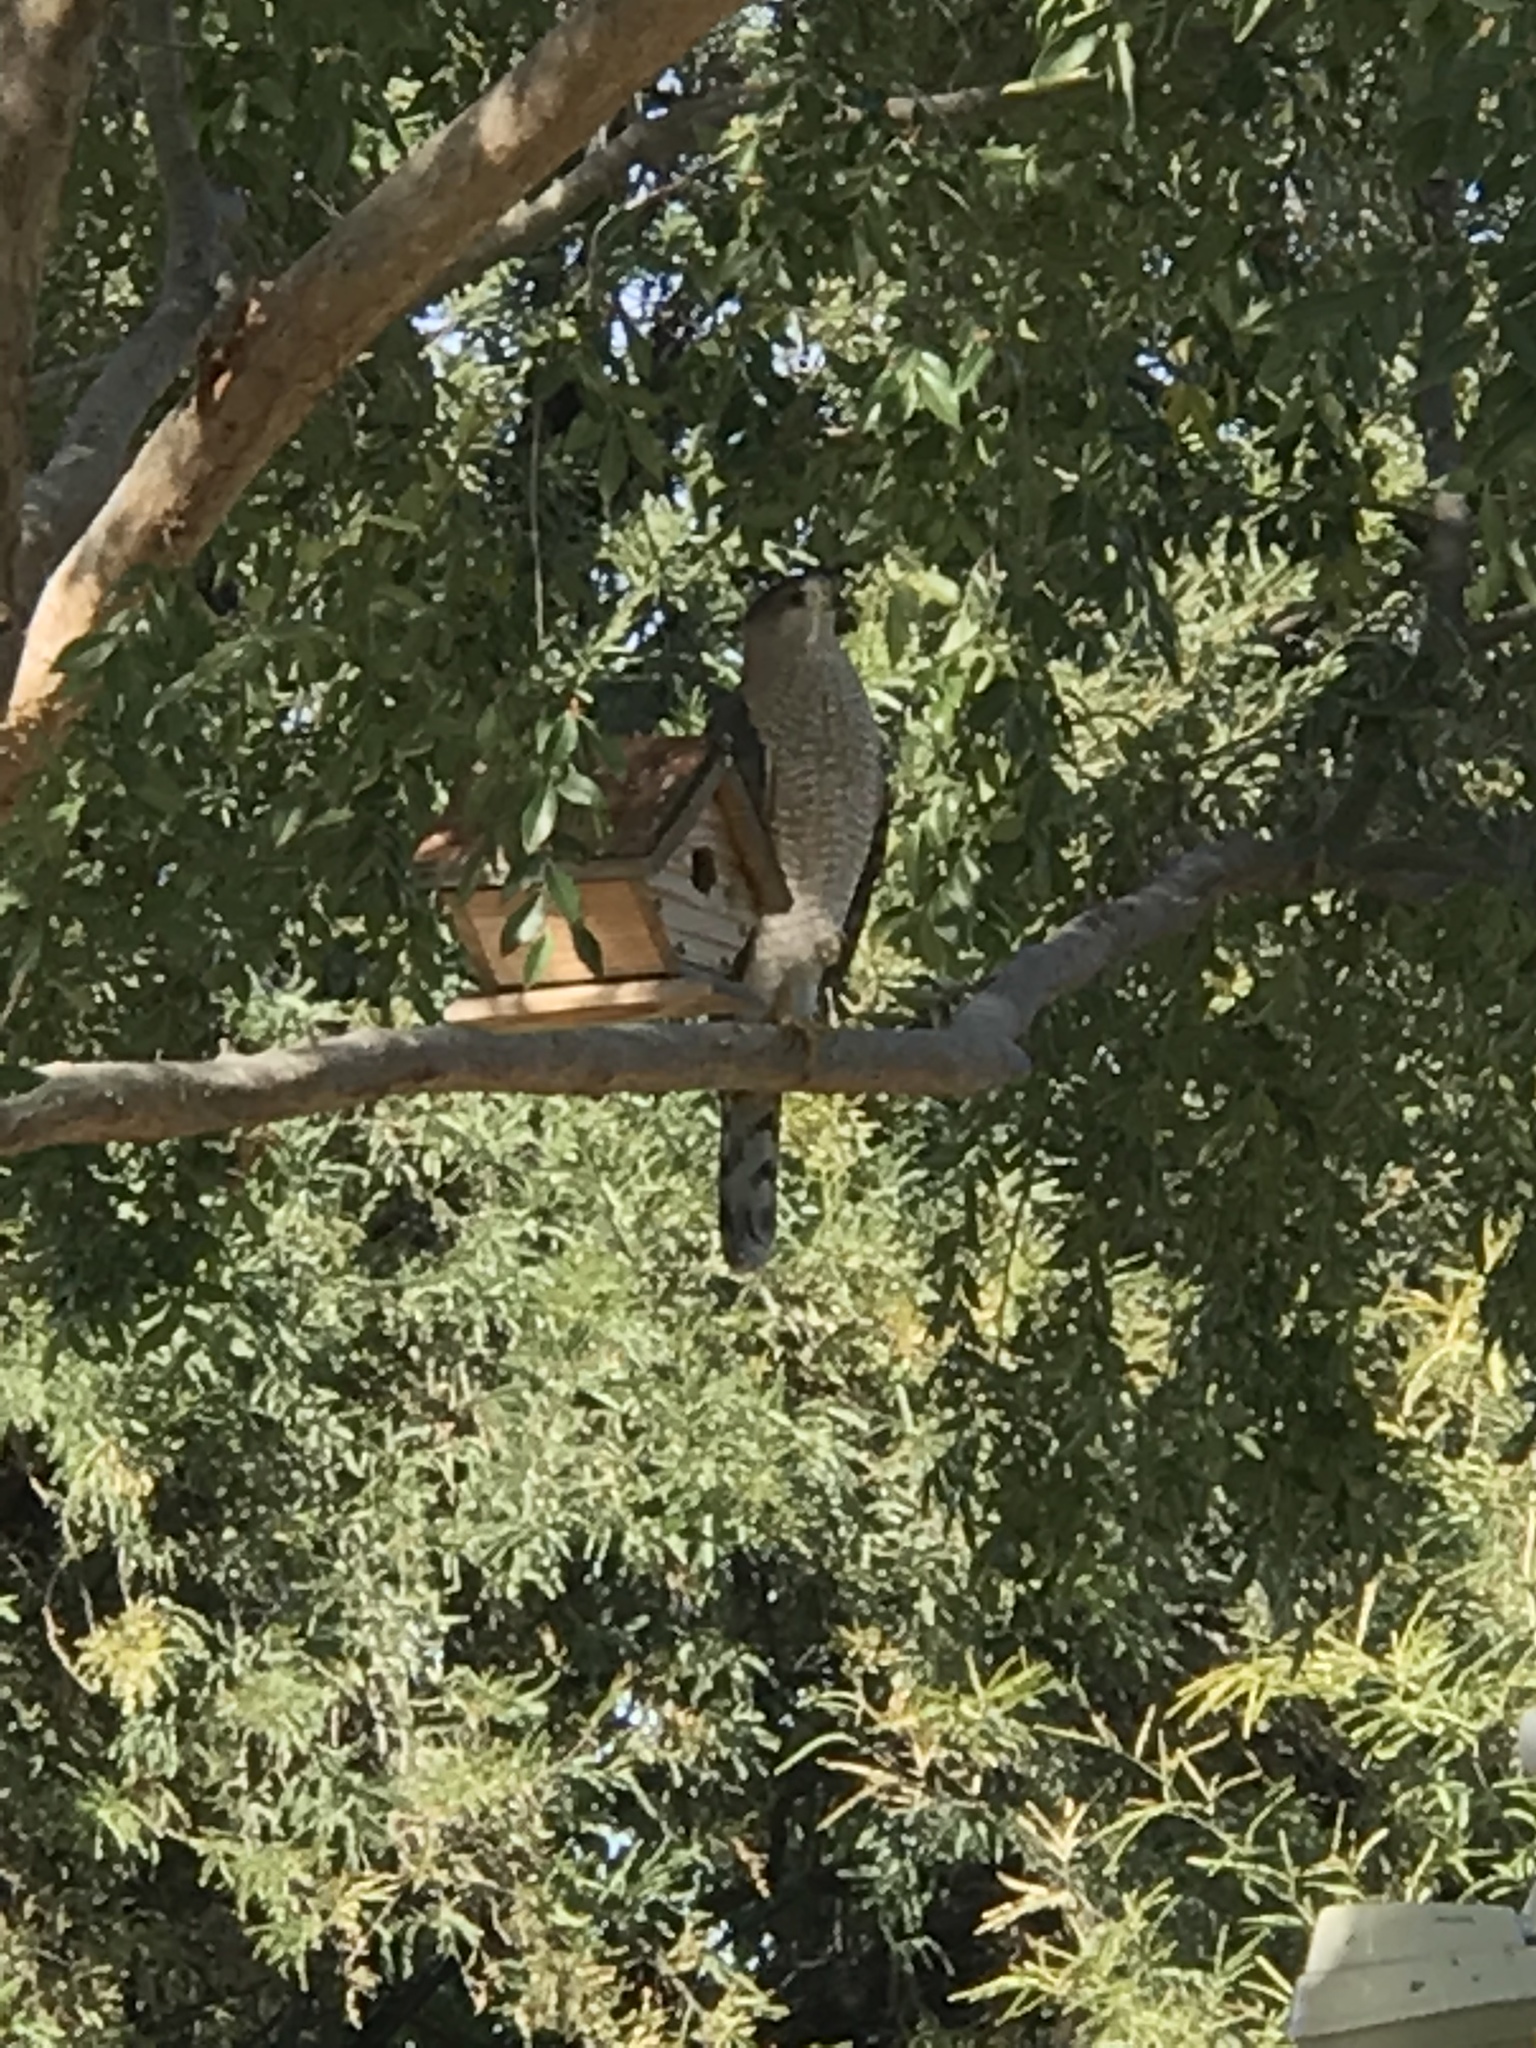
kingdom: Animalia
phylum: Chordata
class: Aves
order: Accipitriformes
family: Accipitridae
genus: Accipiter
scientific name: Accipiter cooperii
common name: Cooper's hawk
